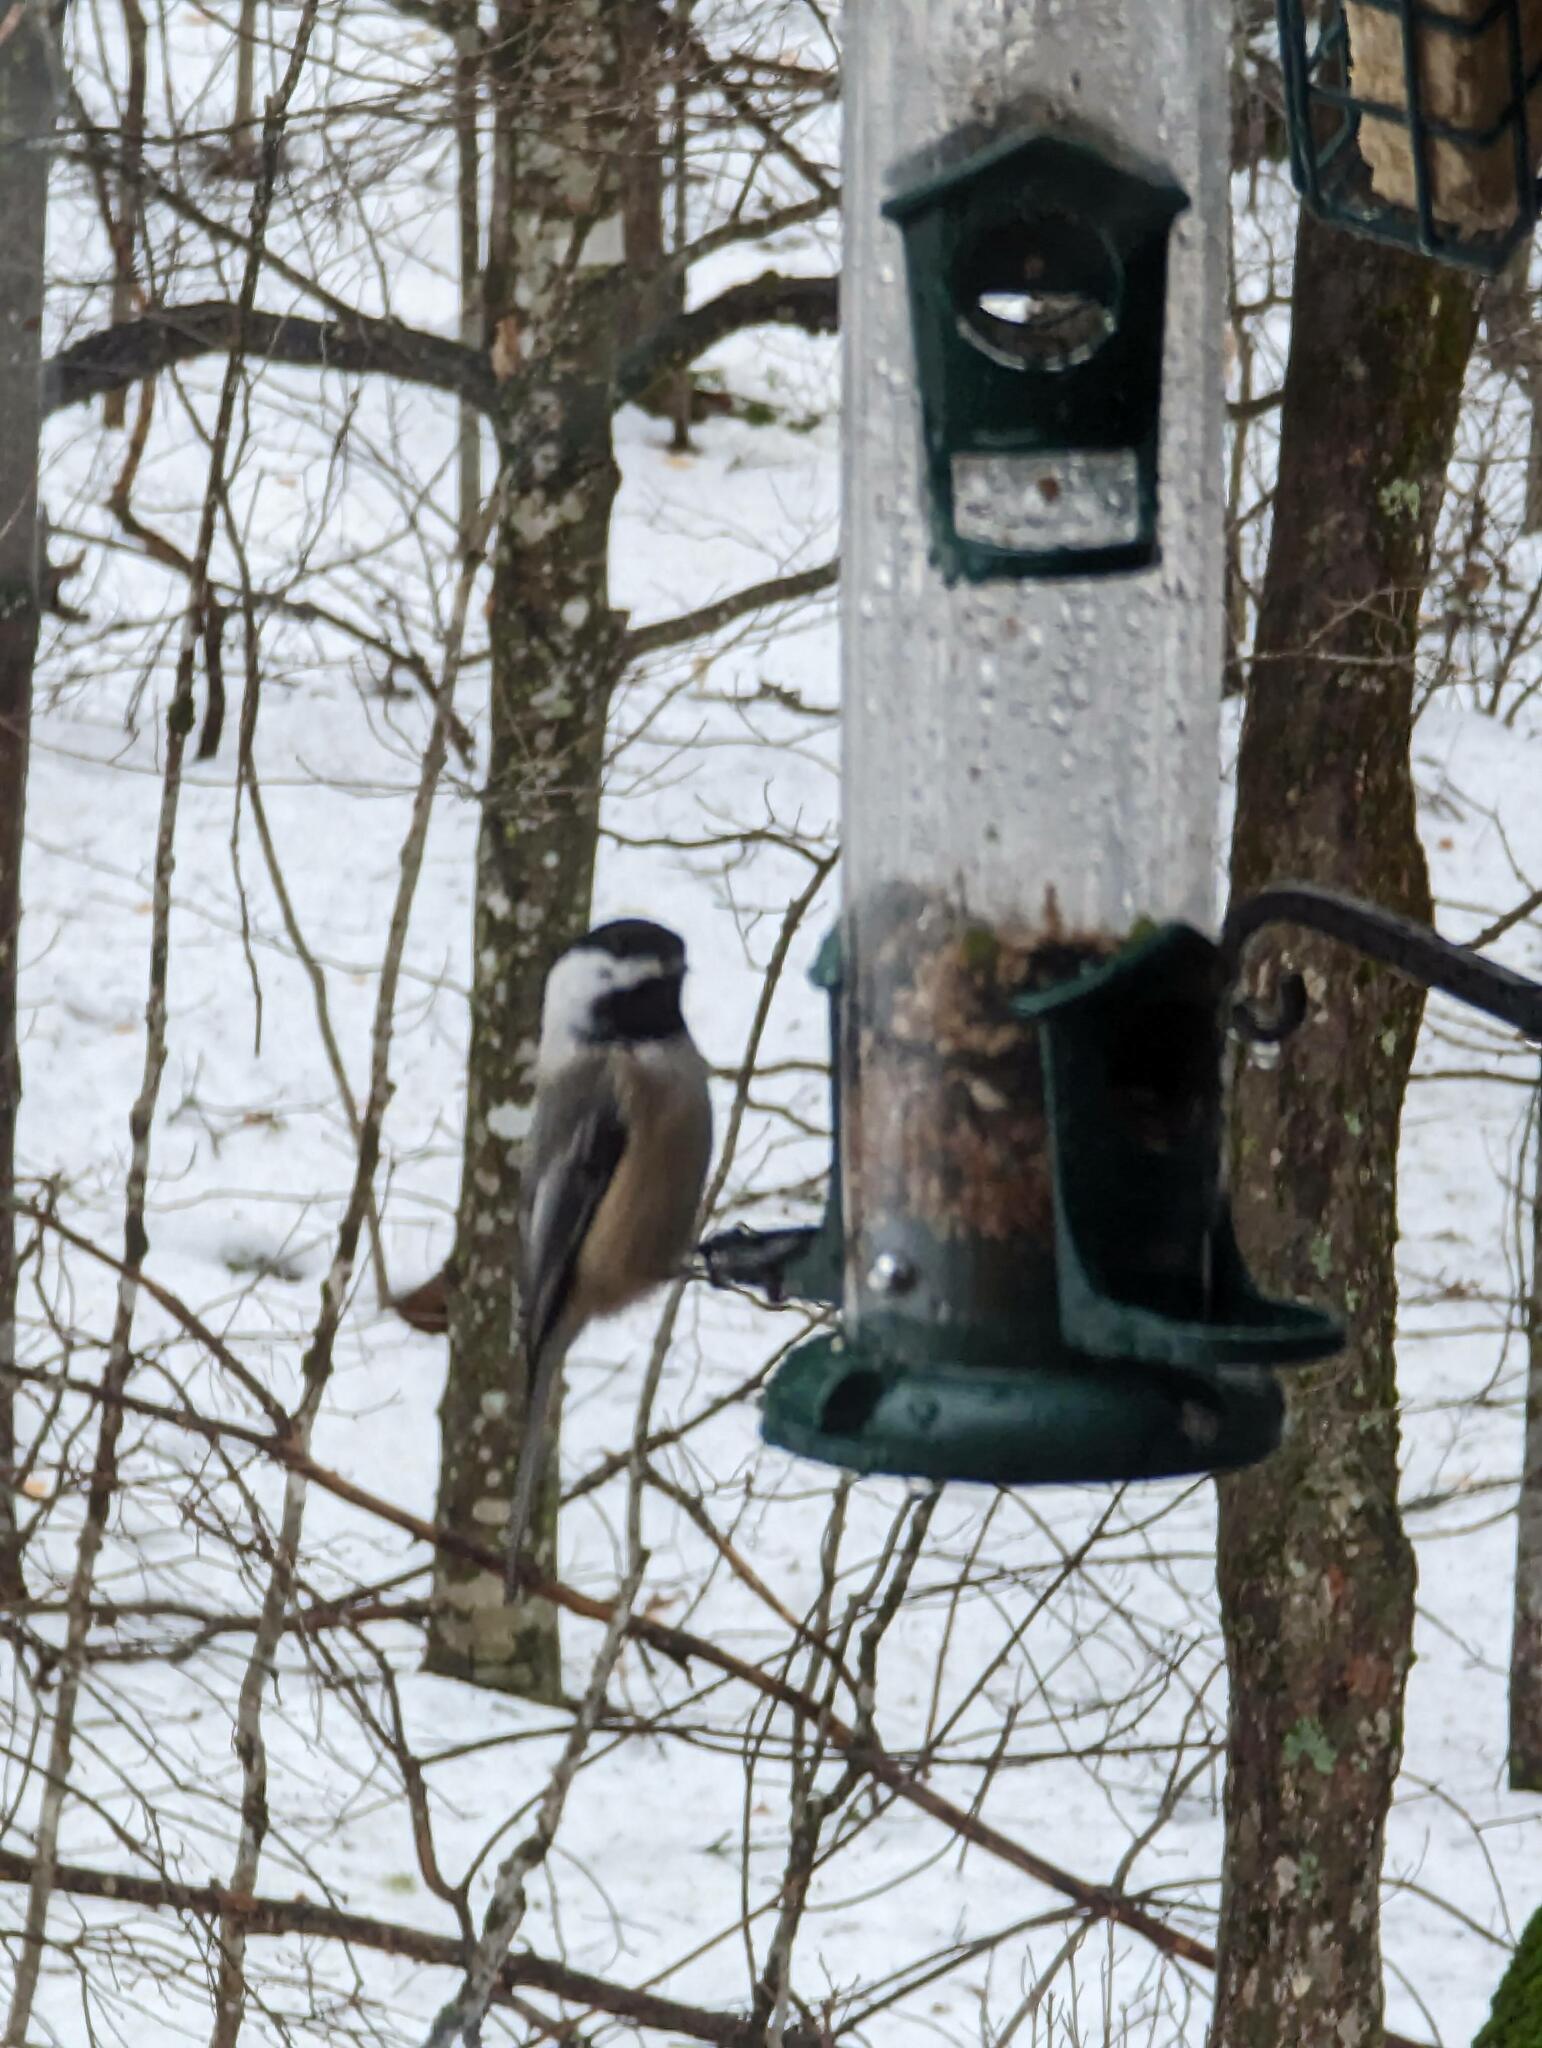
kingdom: Animalia
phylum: Chordata
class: Aves
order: Passeriformes
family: Paridae
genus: Poecile
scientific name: Poecile atricapillus
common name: Black-capped chickadee
